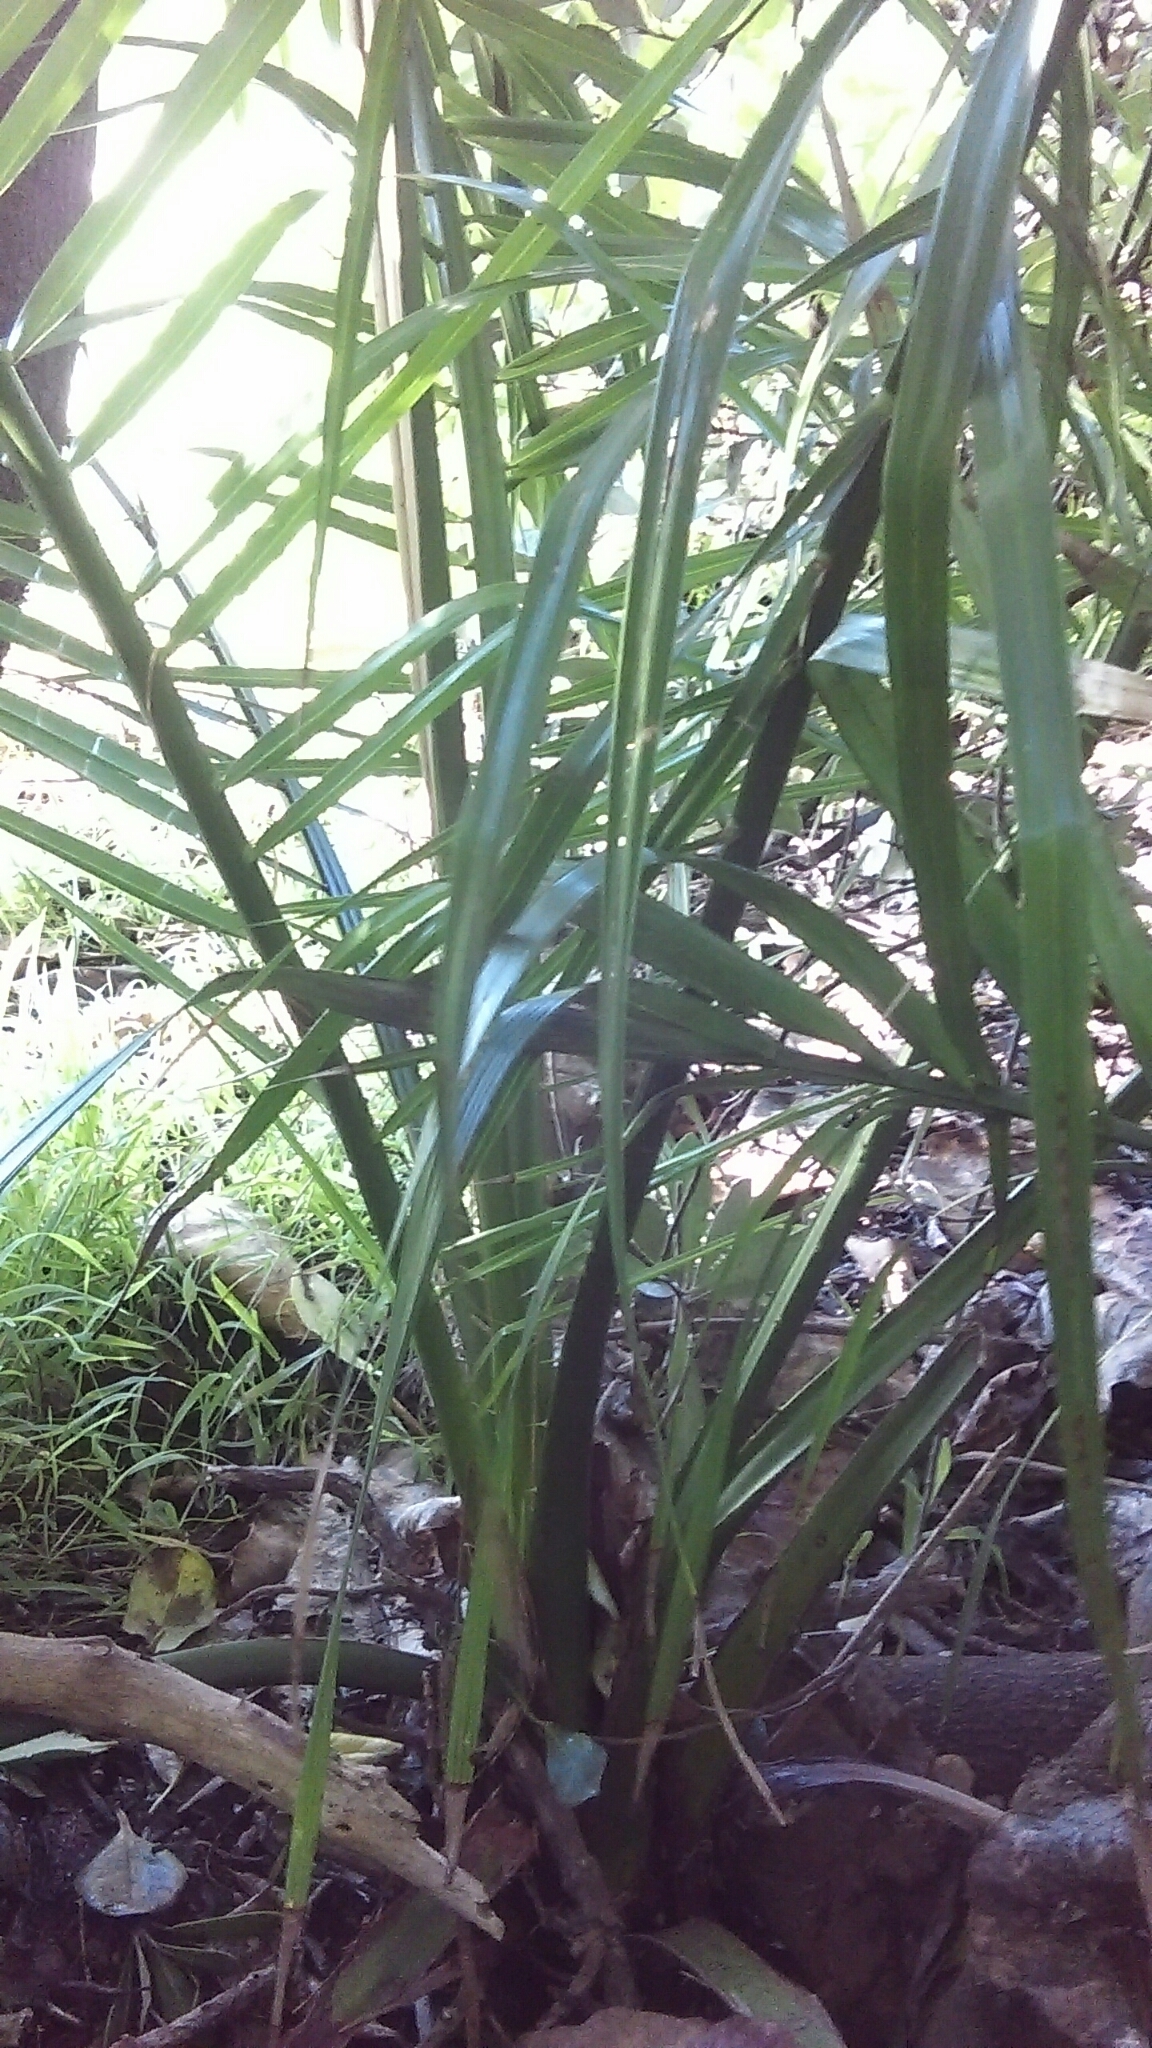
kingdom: Plantae
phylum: Tracheophyta
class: Liliopsida
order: Arecales
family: Arecaceae
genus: Phoenix
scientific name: Phoenix canariensis
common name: Canary island date palm
